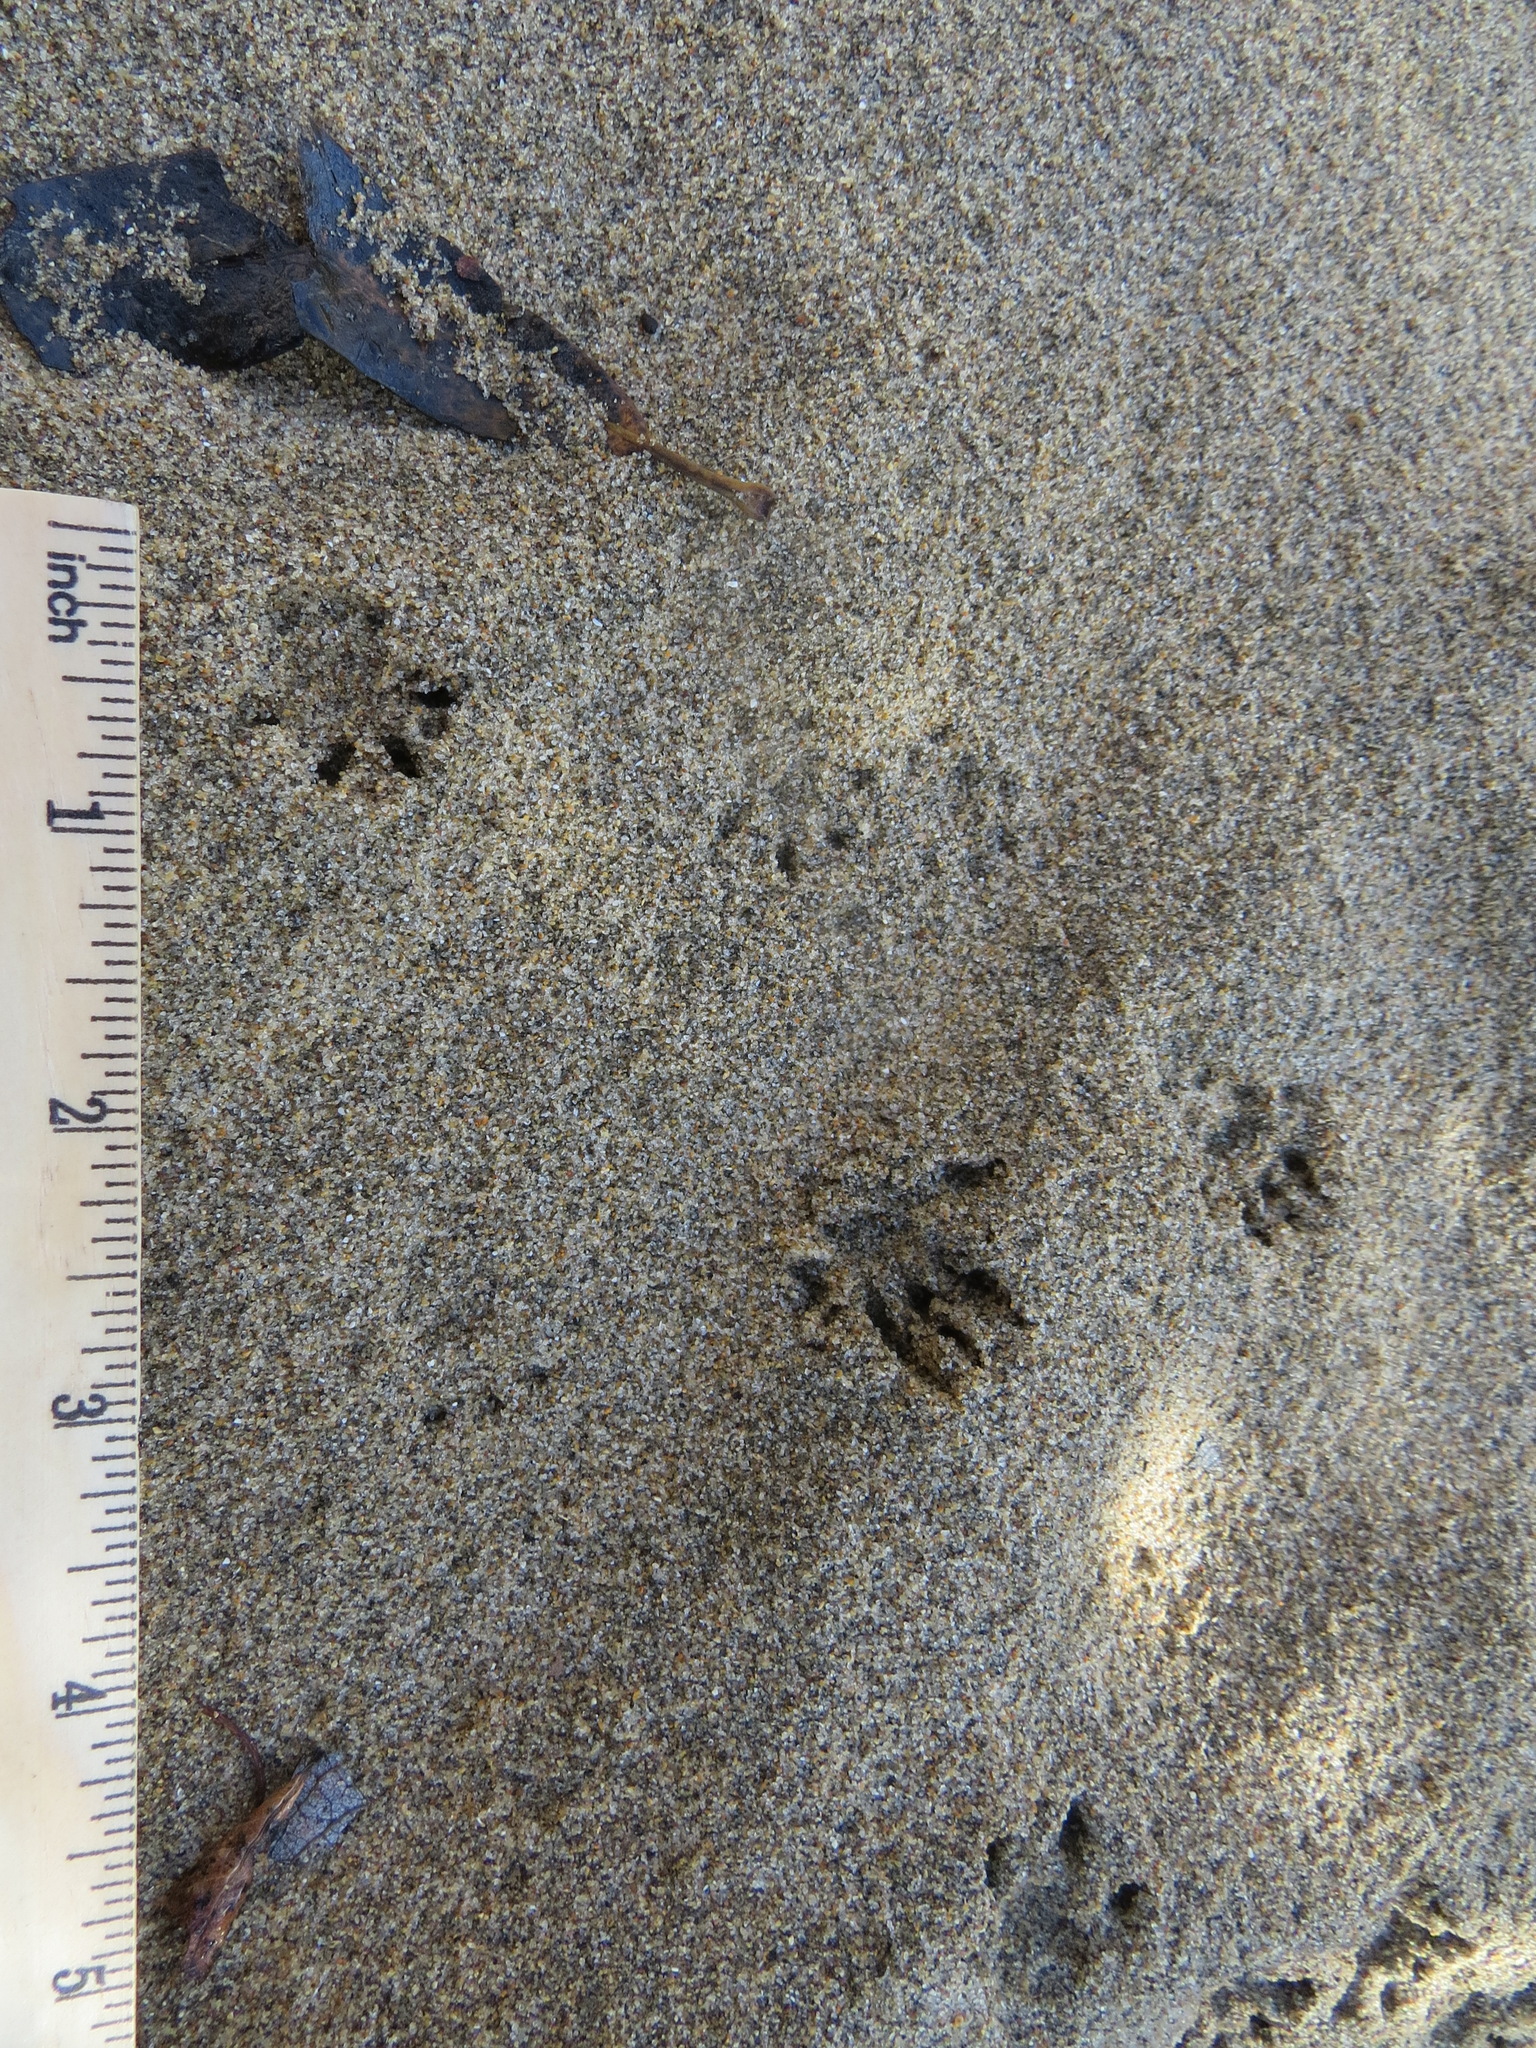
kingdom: Animalia
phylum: Chordata
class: Mammalia
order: Rodentia
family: Cricetidae
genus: Neotoma
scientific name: Neotoma fuscipes
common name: Dusky-footed woodrat
